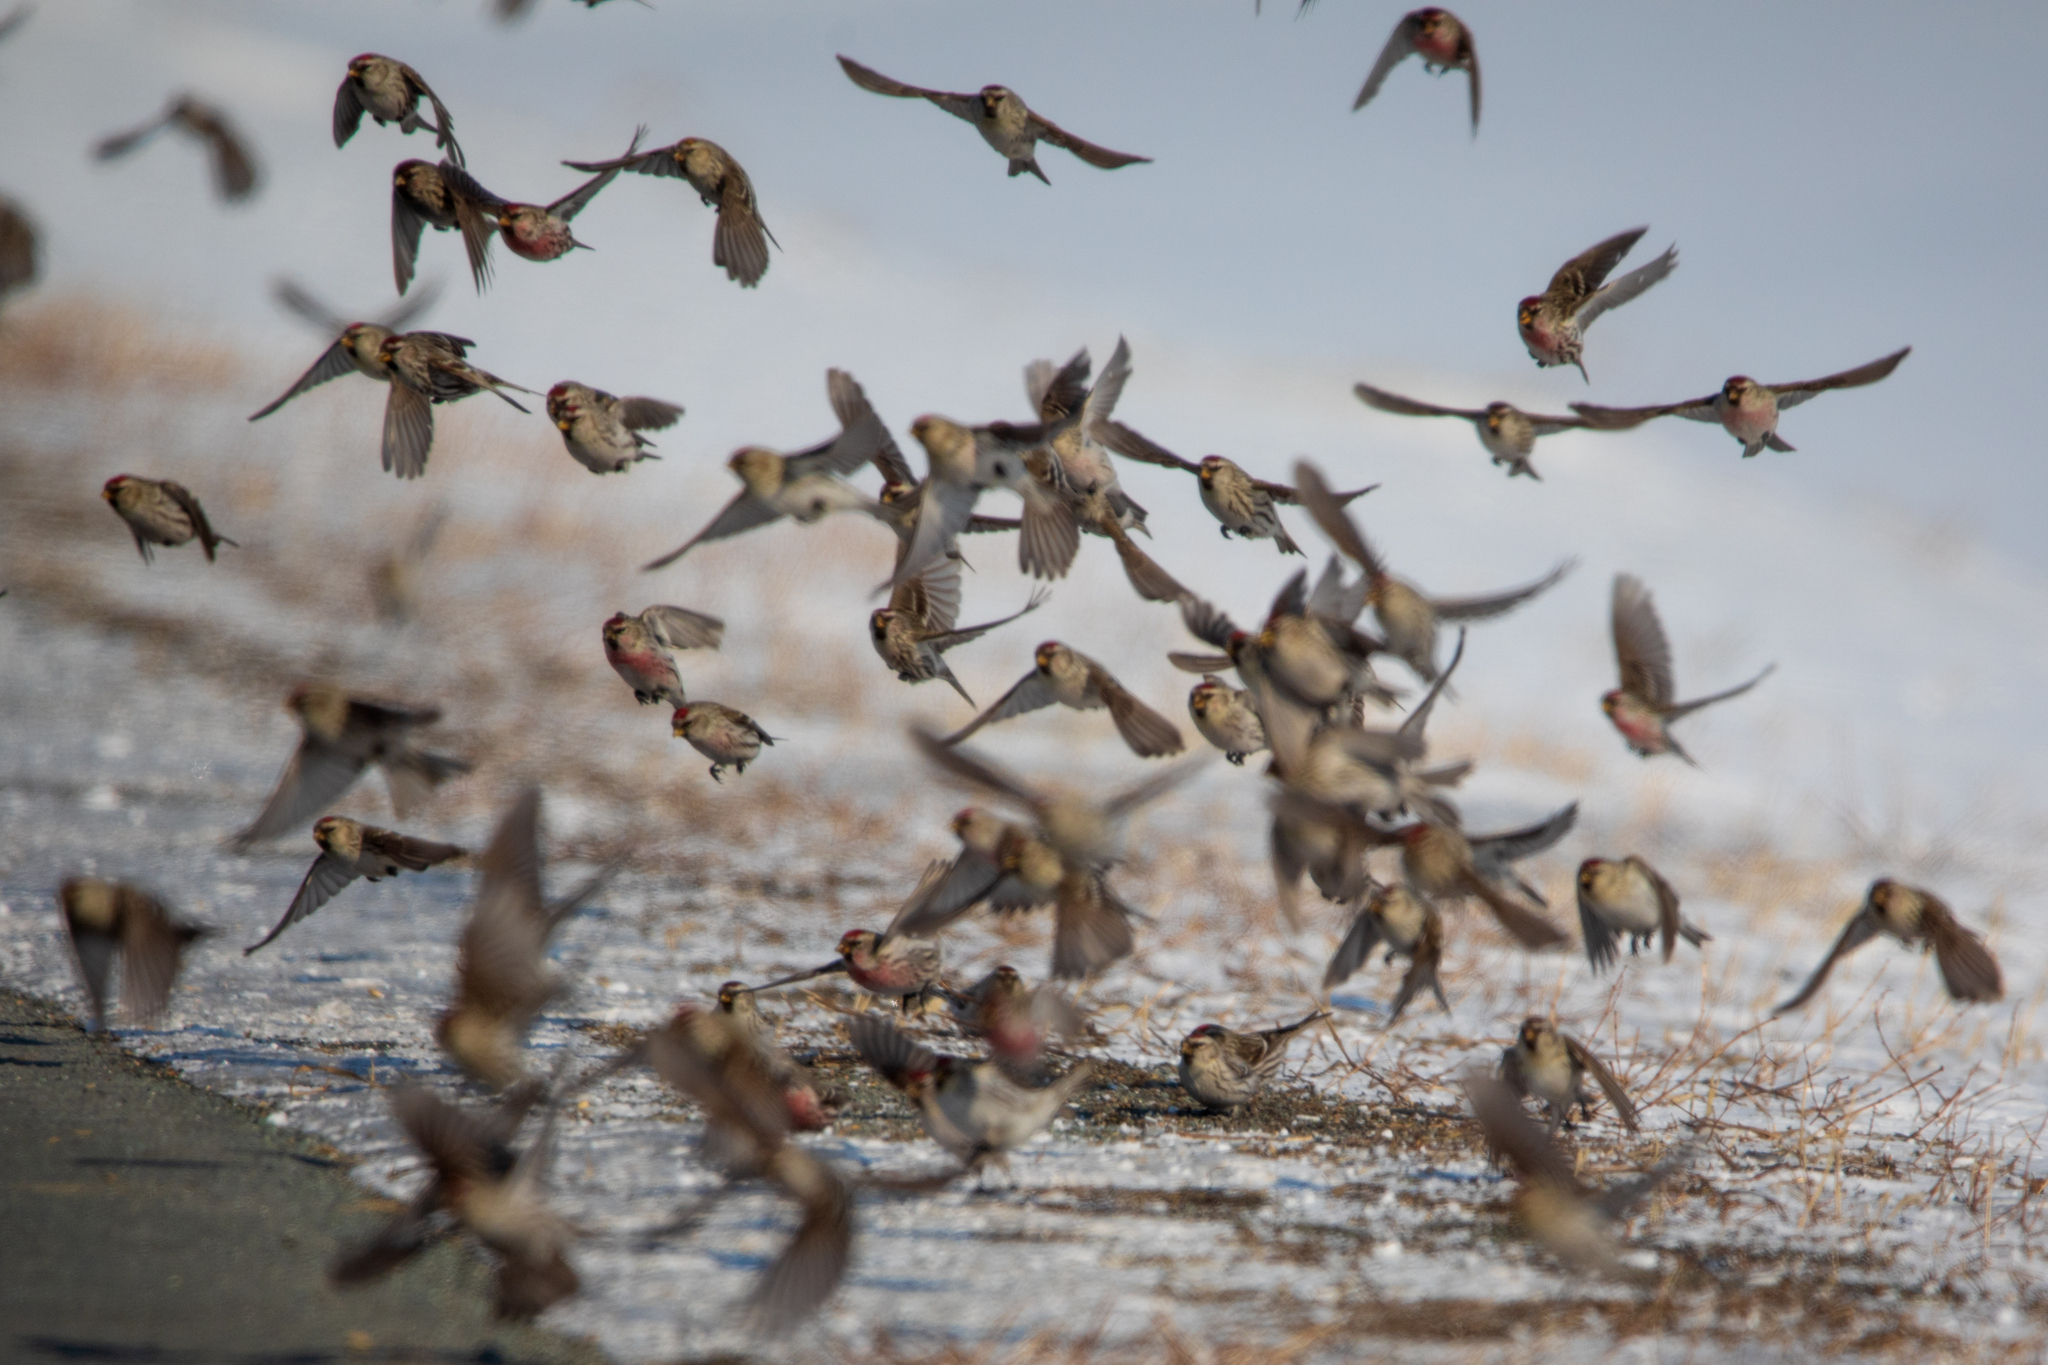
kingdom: Animalia
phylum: Chordata
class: Aves
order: Passeriformes
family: Fringillidae
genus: Acanthis
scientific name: Acanthis flammea
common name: Common redpoll
